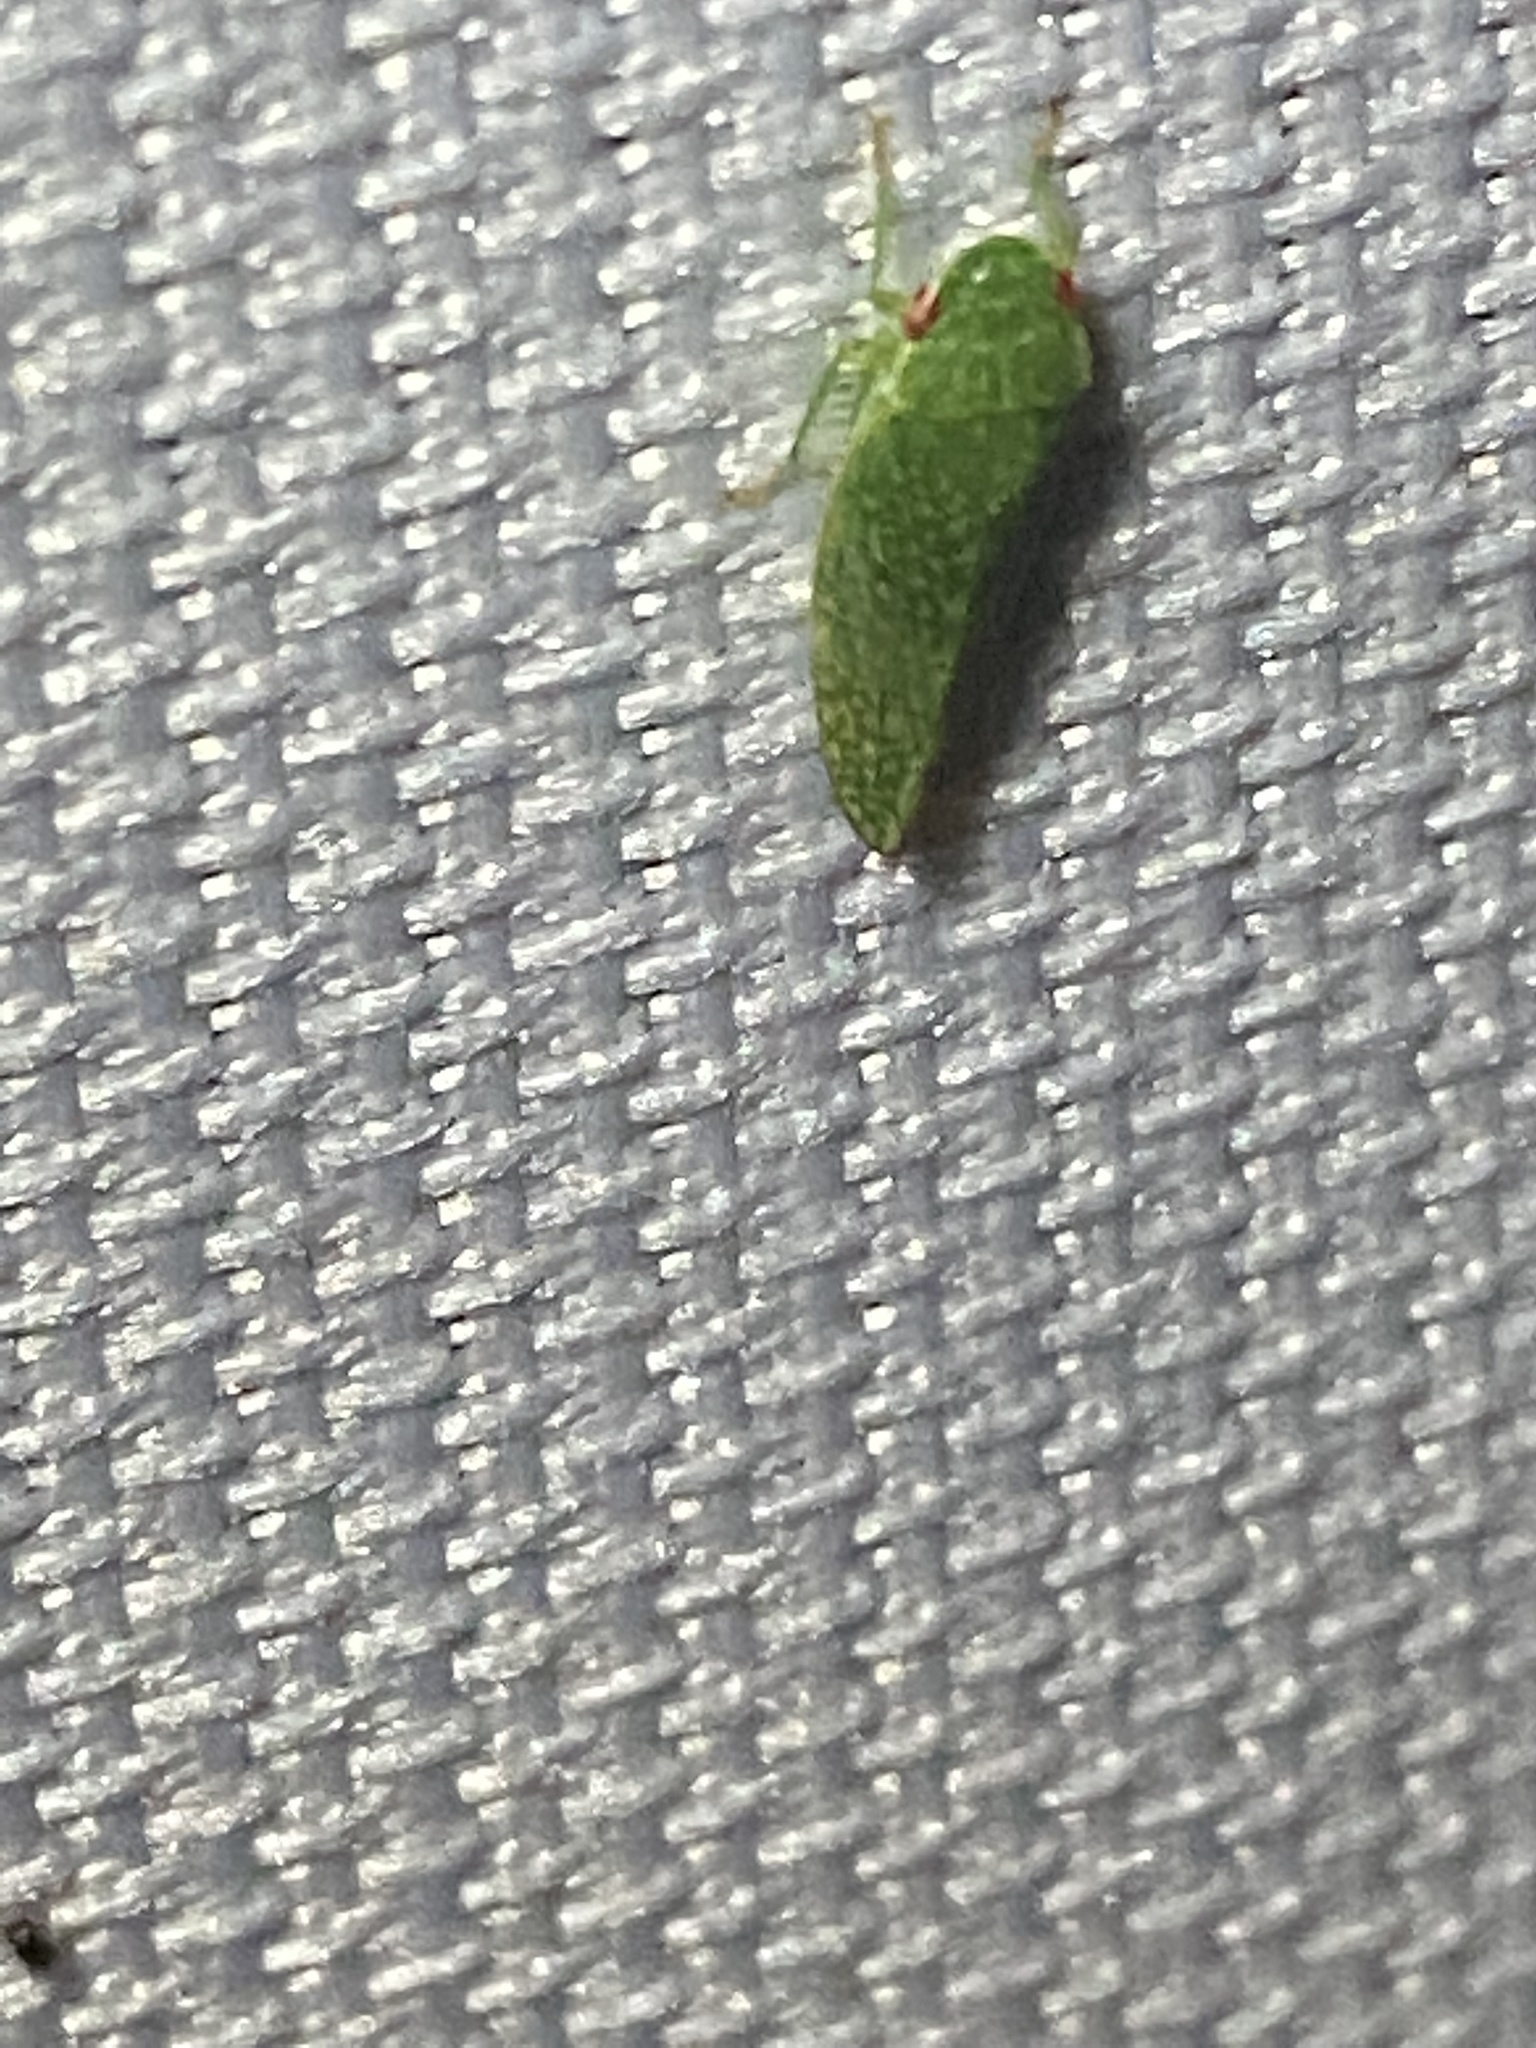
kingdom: Animalia
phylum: Arthropoda
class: Insecta
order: Hemiptera
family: Cicadellidae
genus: Rugosana
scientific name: Rugosana querci
